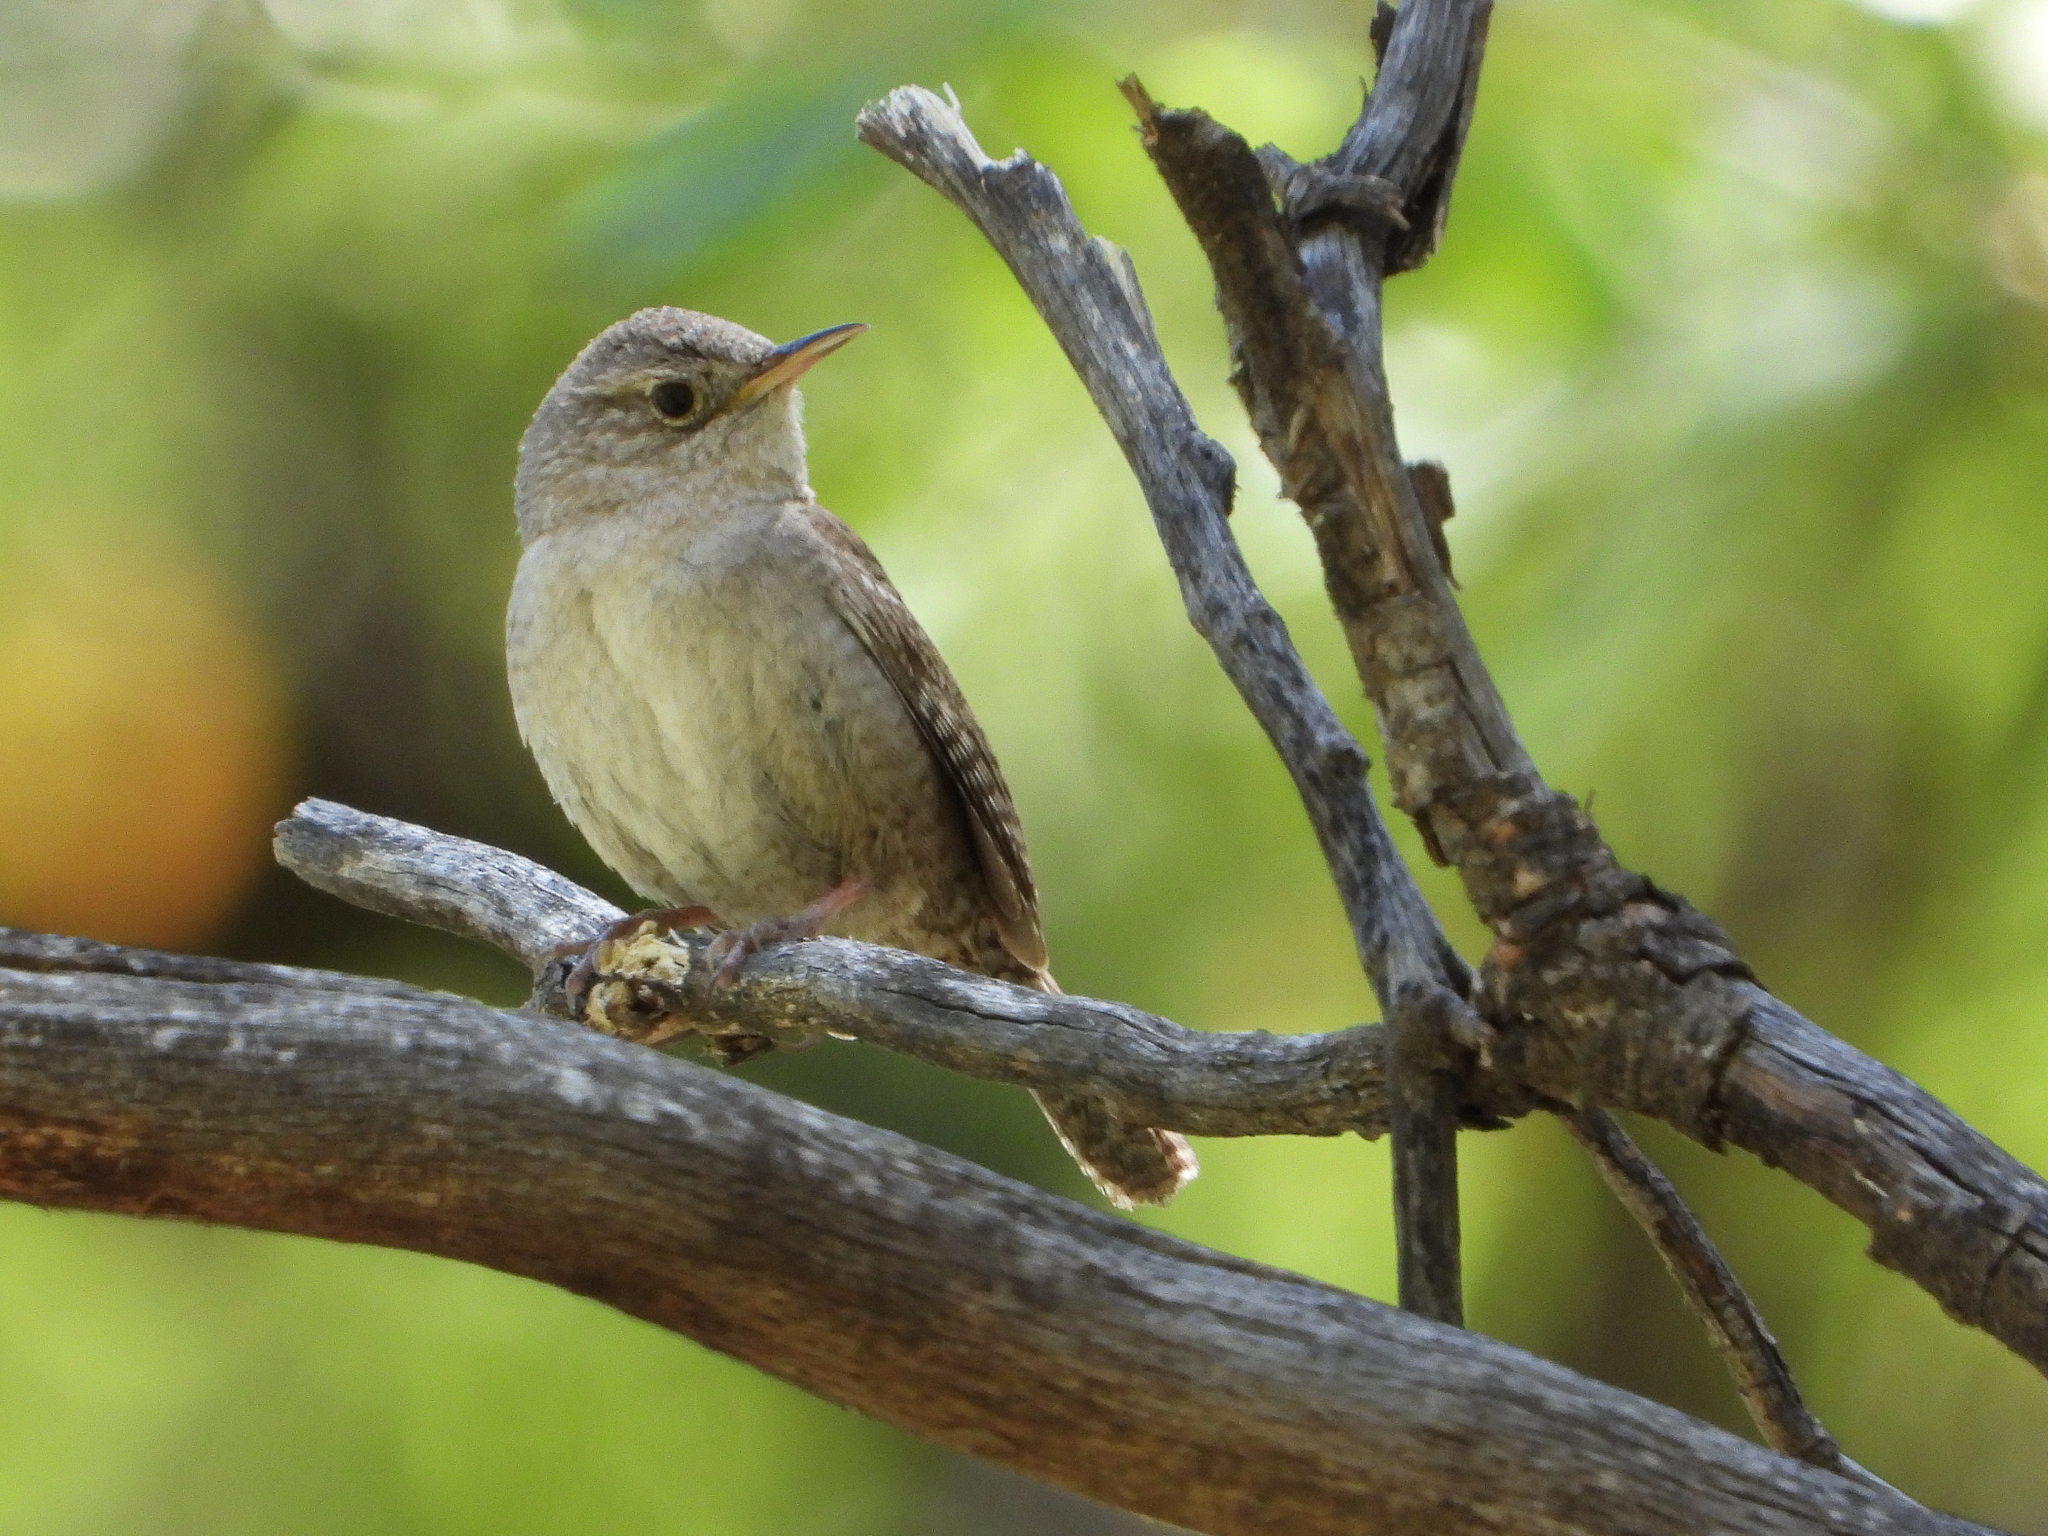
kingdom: Animalia
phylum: Chordata
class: Aves
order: Passeriformes
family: Troglodytidae
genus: Troglodytes
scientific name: Troglodytes aedon
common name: House wren
